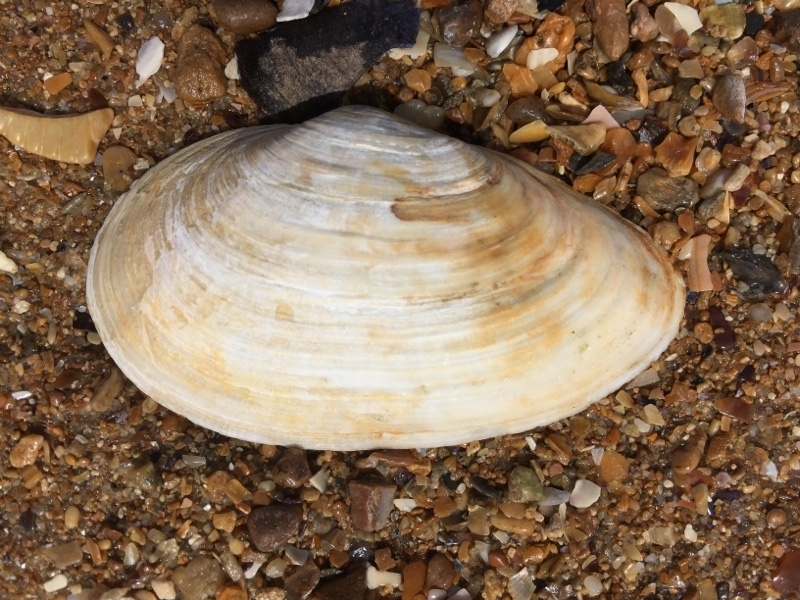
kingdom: Animalia
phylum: Mollusca
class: Bivalvia
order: Myida
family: Myidae
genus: Mya
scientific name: Mya arenaria
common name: Soft-shelled clam
